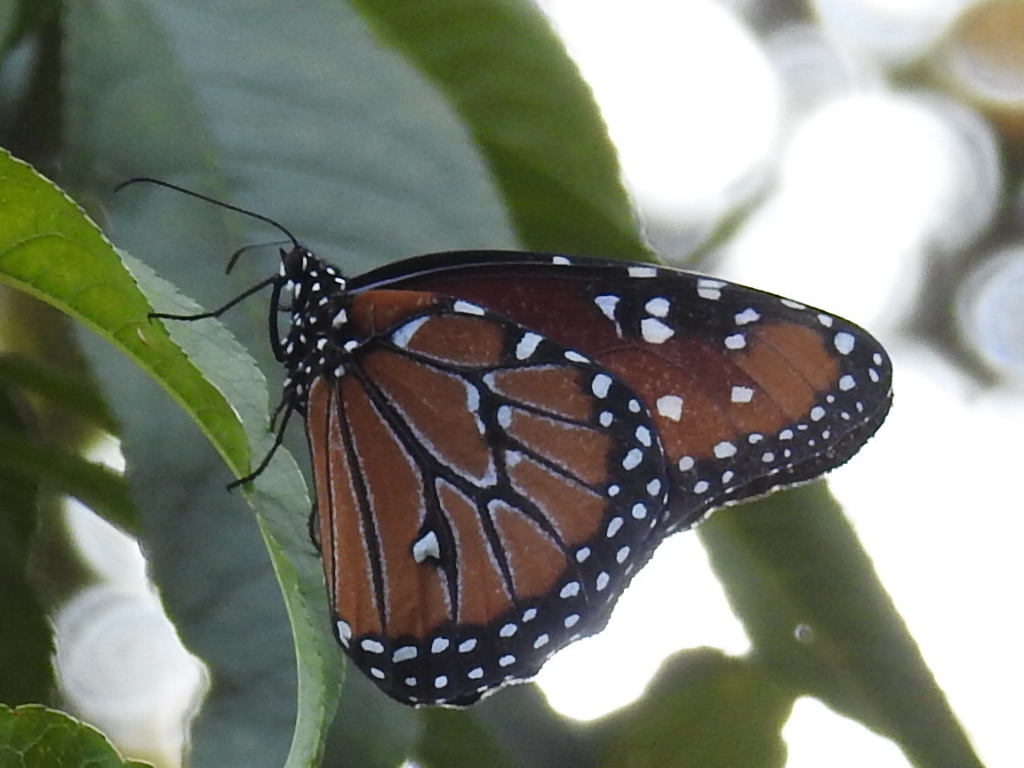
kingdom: Animalia
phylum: Arthropoda
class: Insecta
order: Lepidoptera
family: Nymphalidae
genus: Danaus
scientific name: Danaus gilippus
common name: Queen
